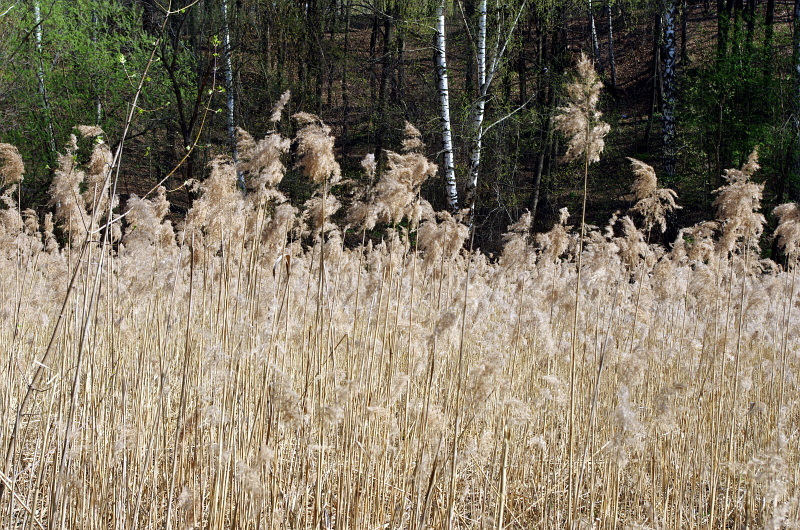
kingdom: Plantae
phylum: Tracheophyta
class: Liliopsida
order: Poales
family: Poaceae
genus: Phragmites
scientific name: Phragmites australis
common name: Common reed
